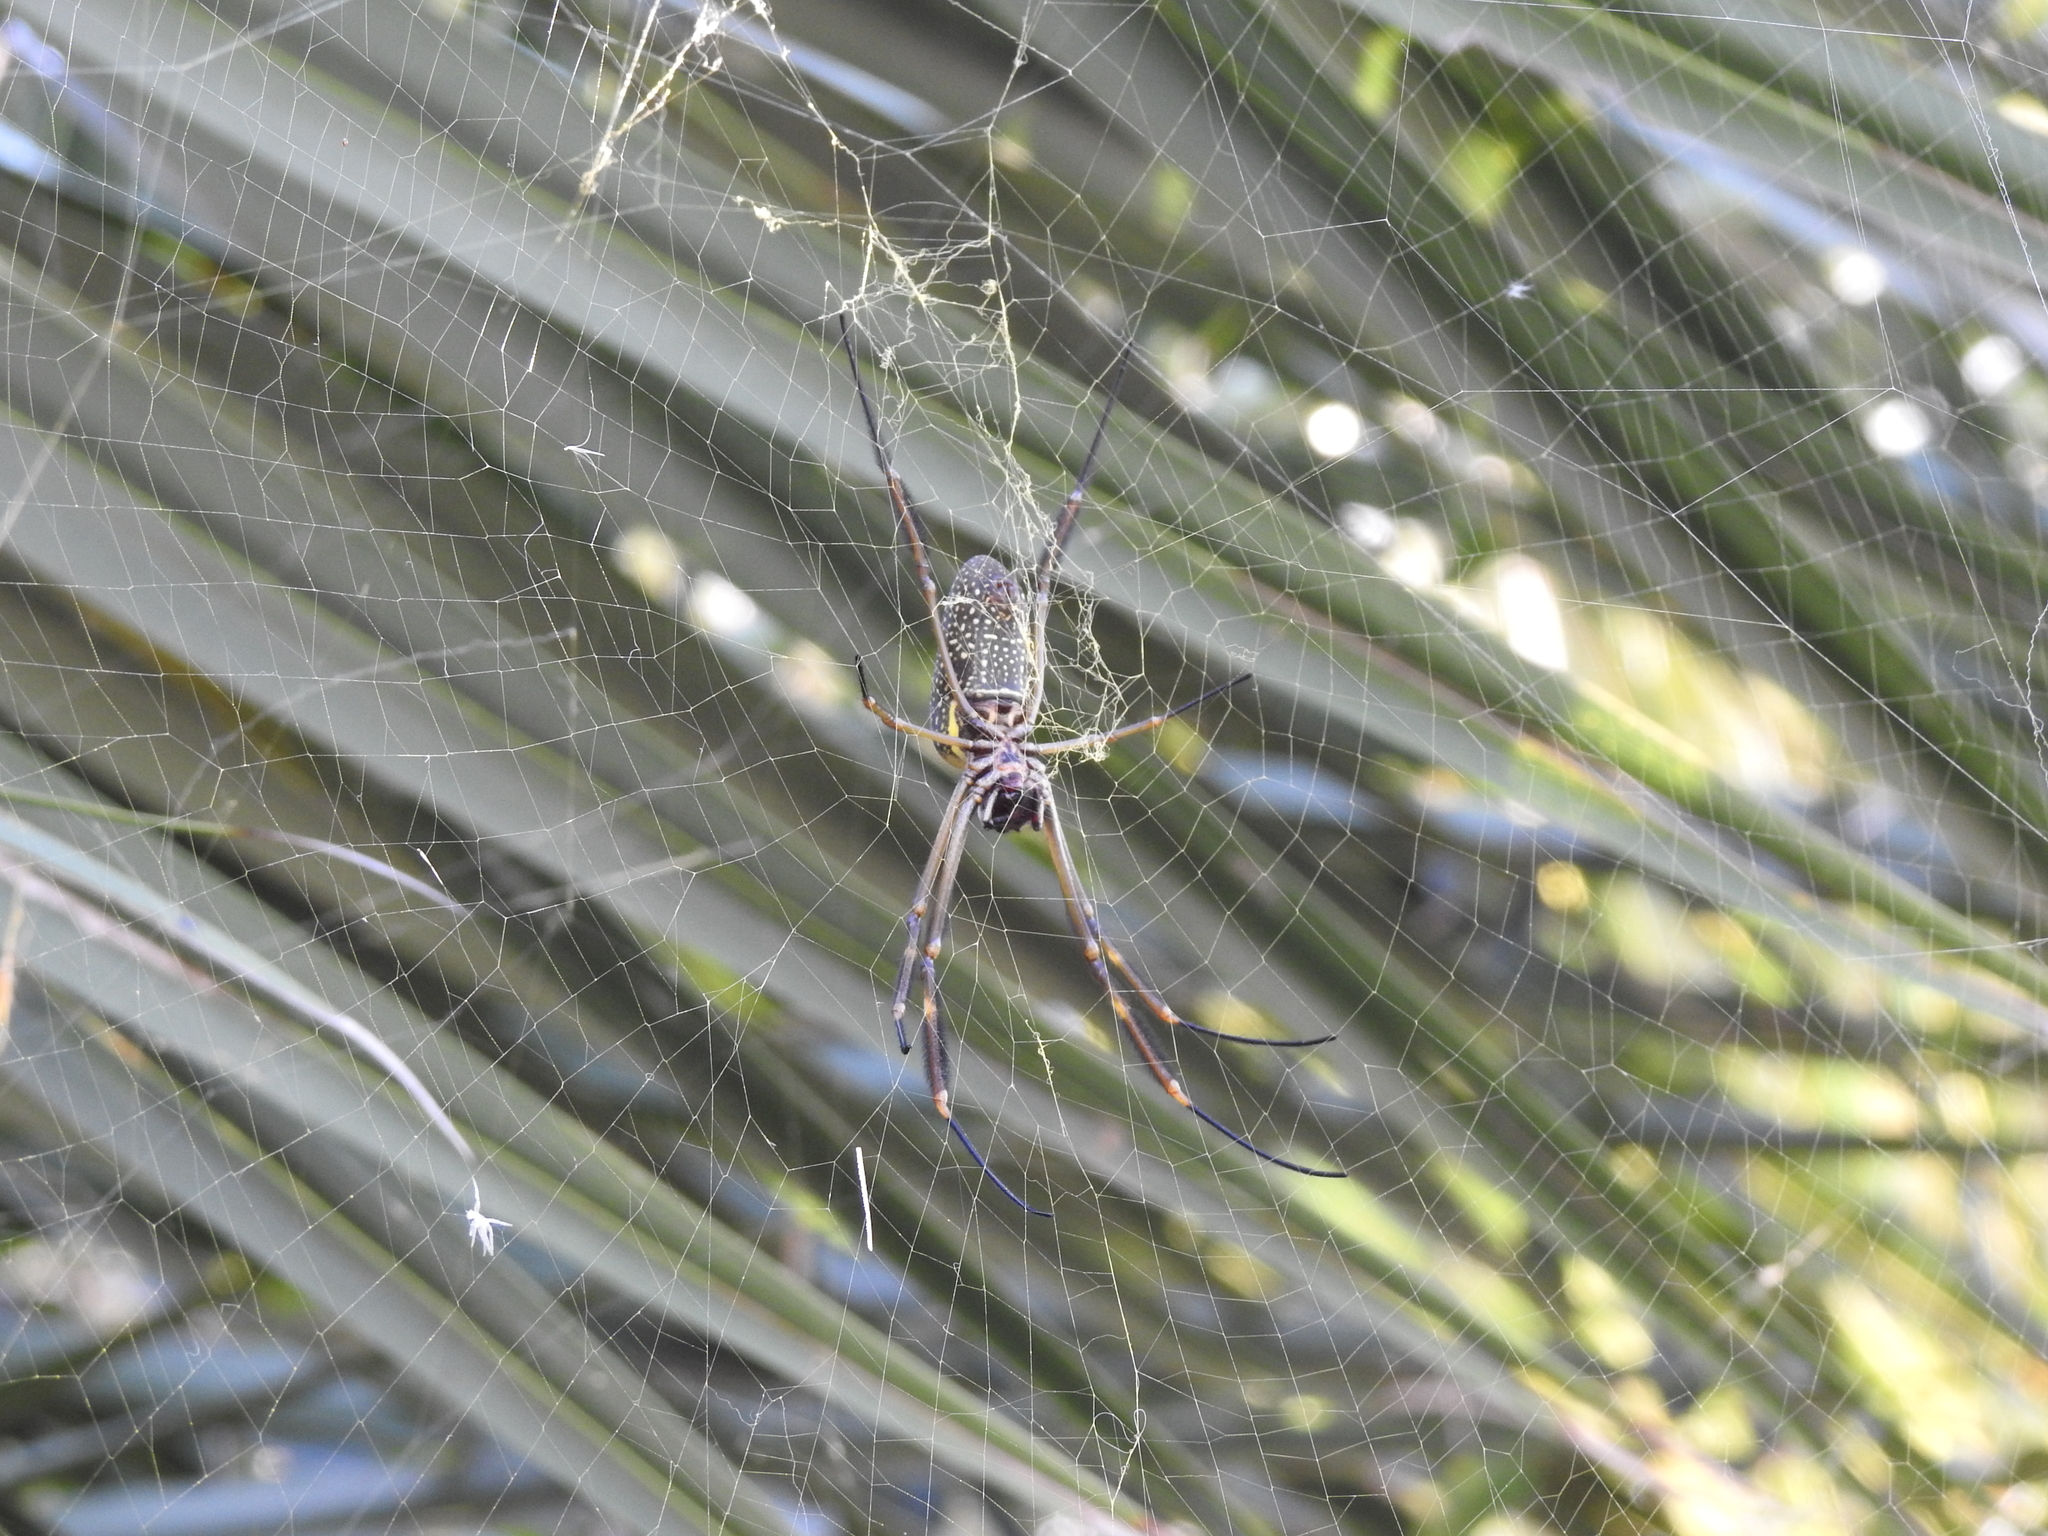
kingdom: Animalia
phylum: Arthropoda
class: Arachnida
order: Araneae
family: Araneidae
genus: Trichonephila
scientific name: Trichonephila clavipes
